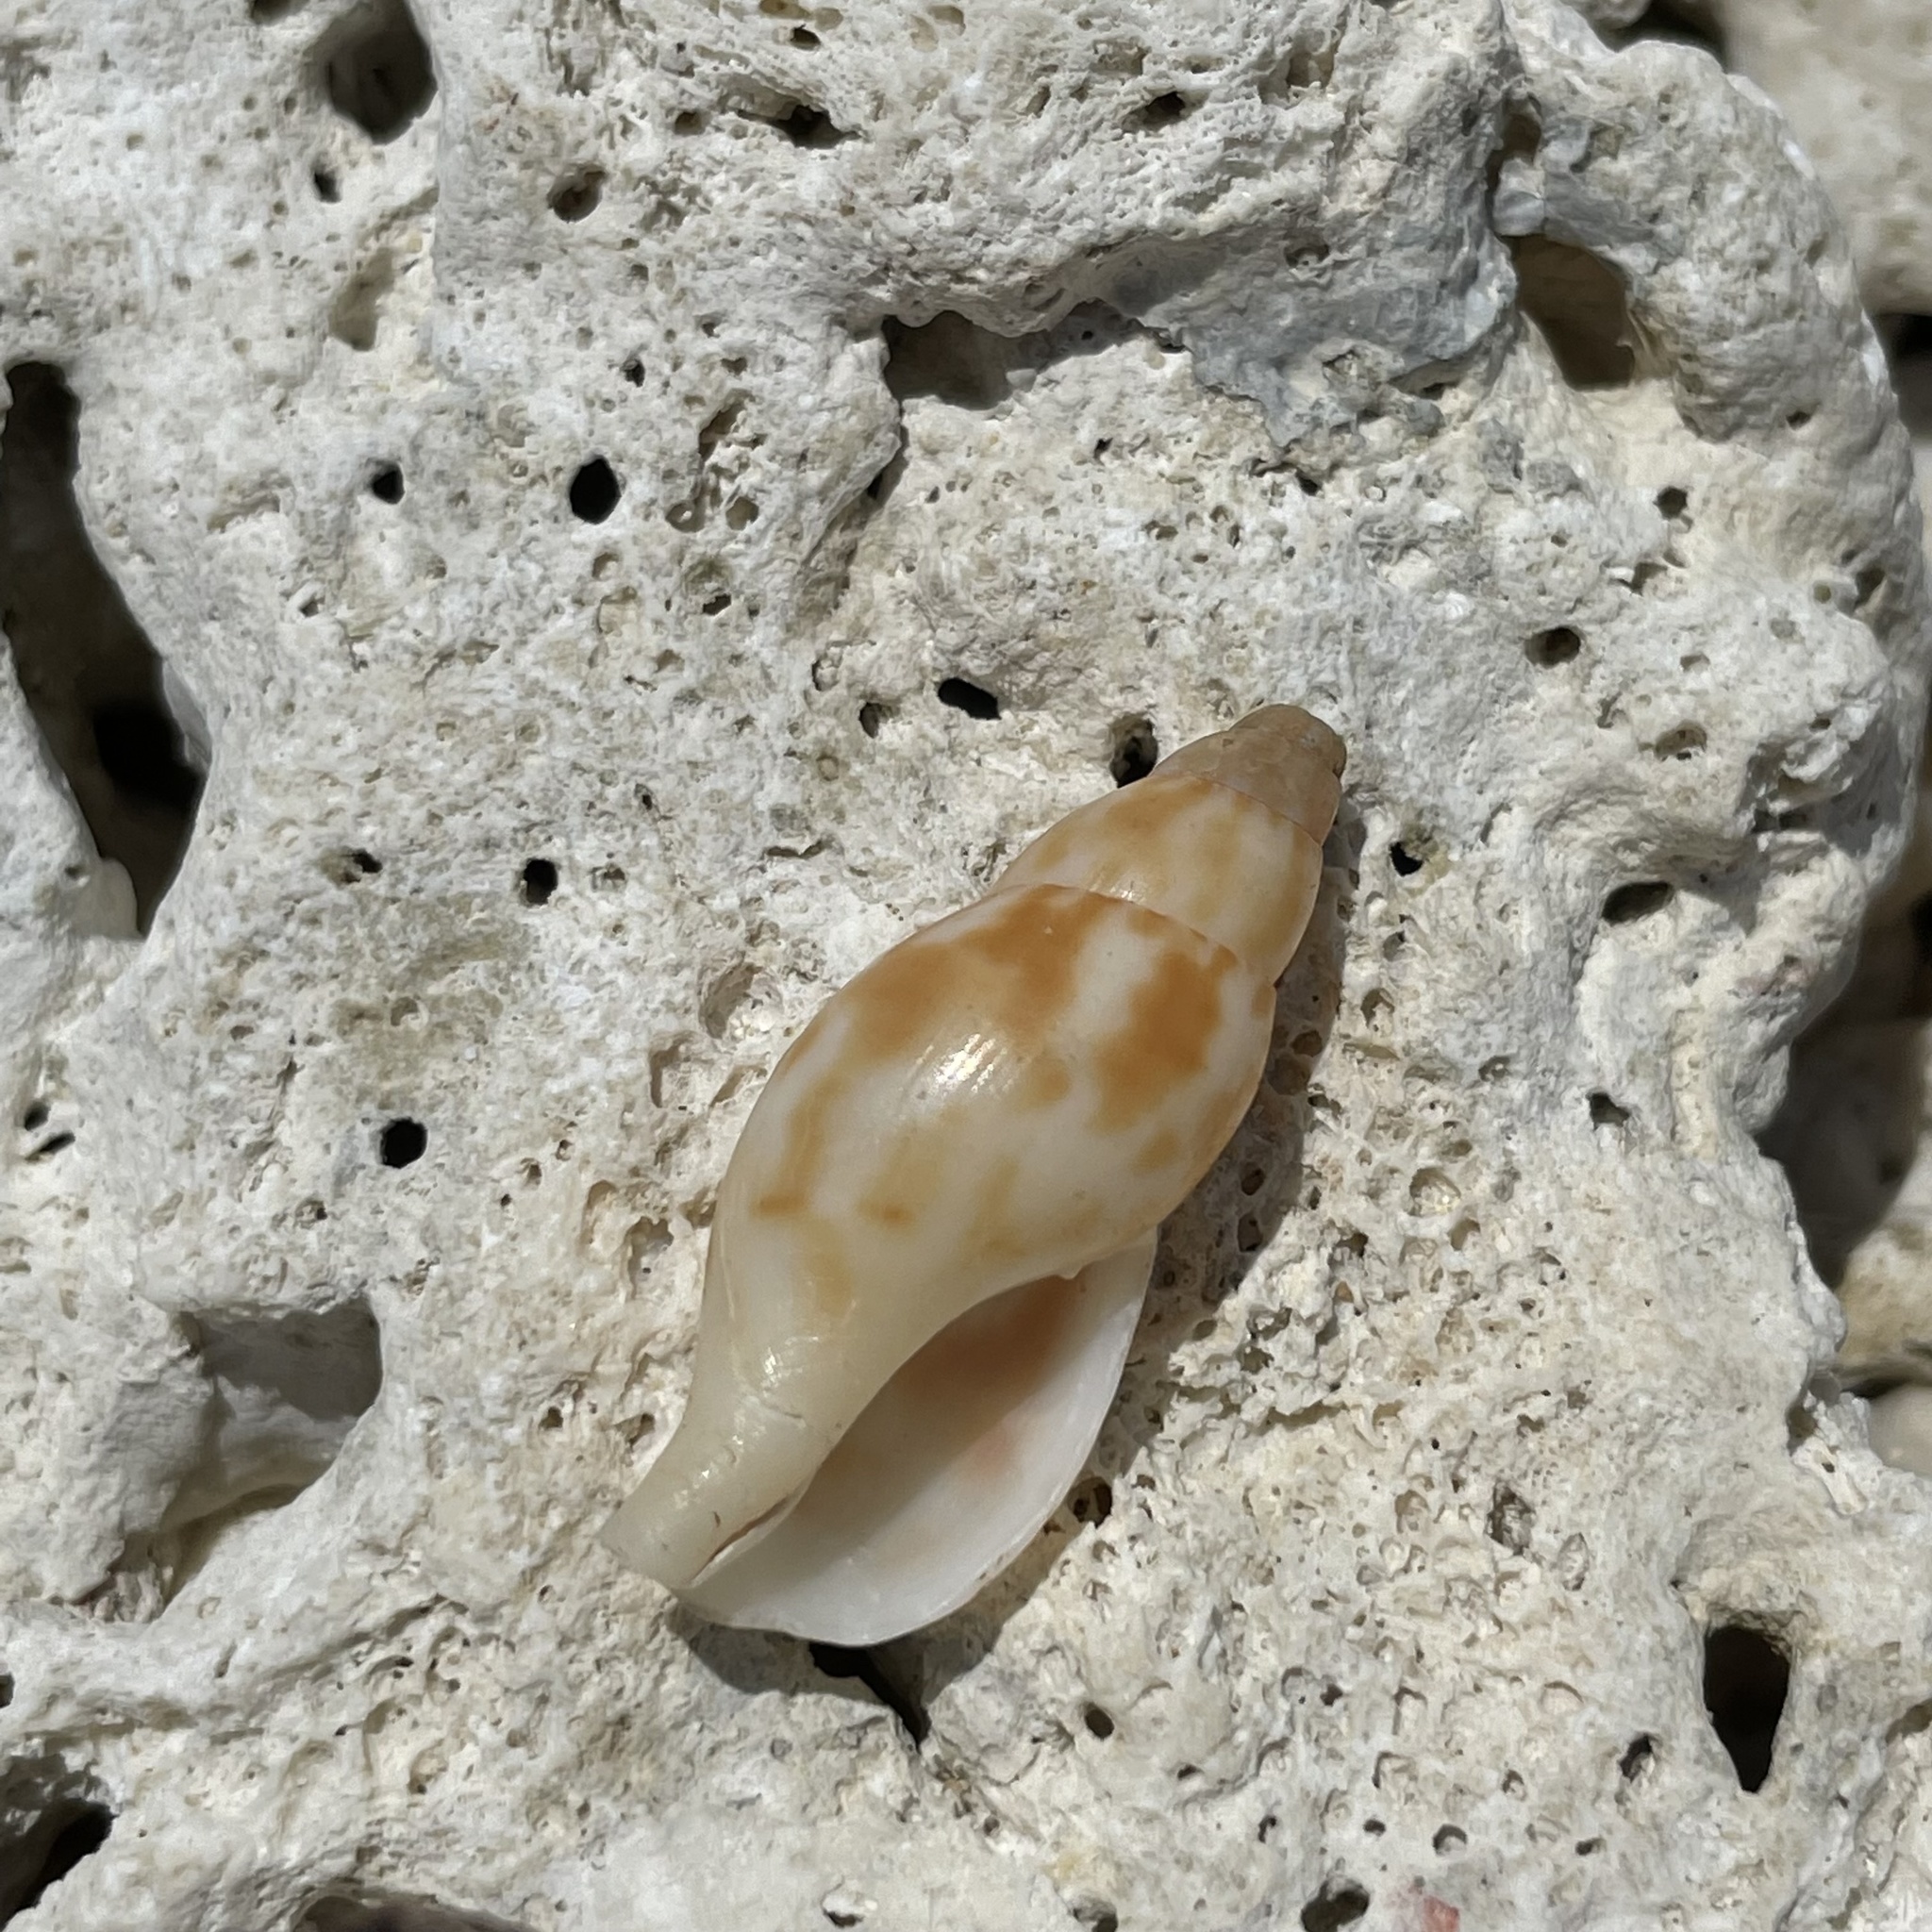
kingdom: Animalia
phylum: Mollusca
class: Gastropoda
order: Neogastropoda
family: Pisaniidae
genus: Pisania
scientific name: Pisania ignea
